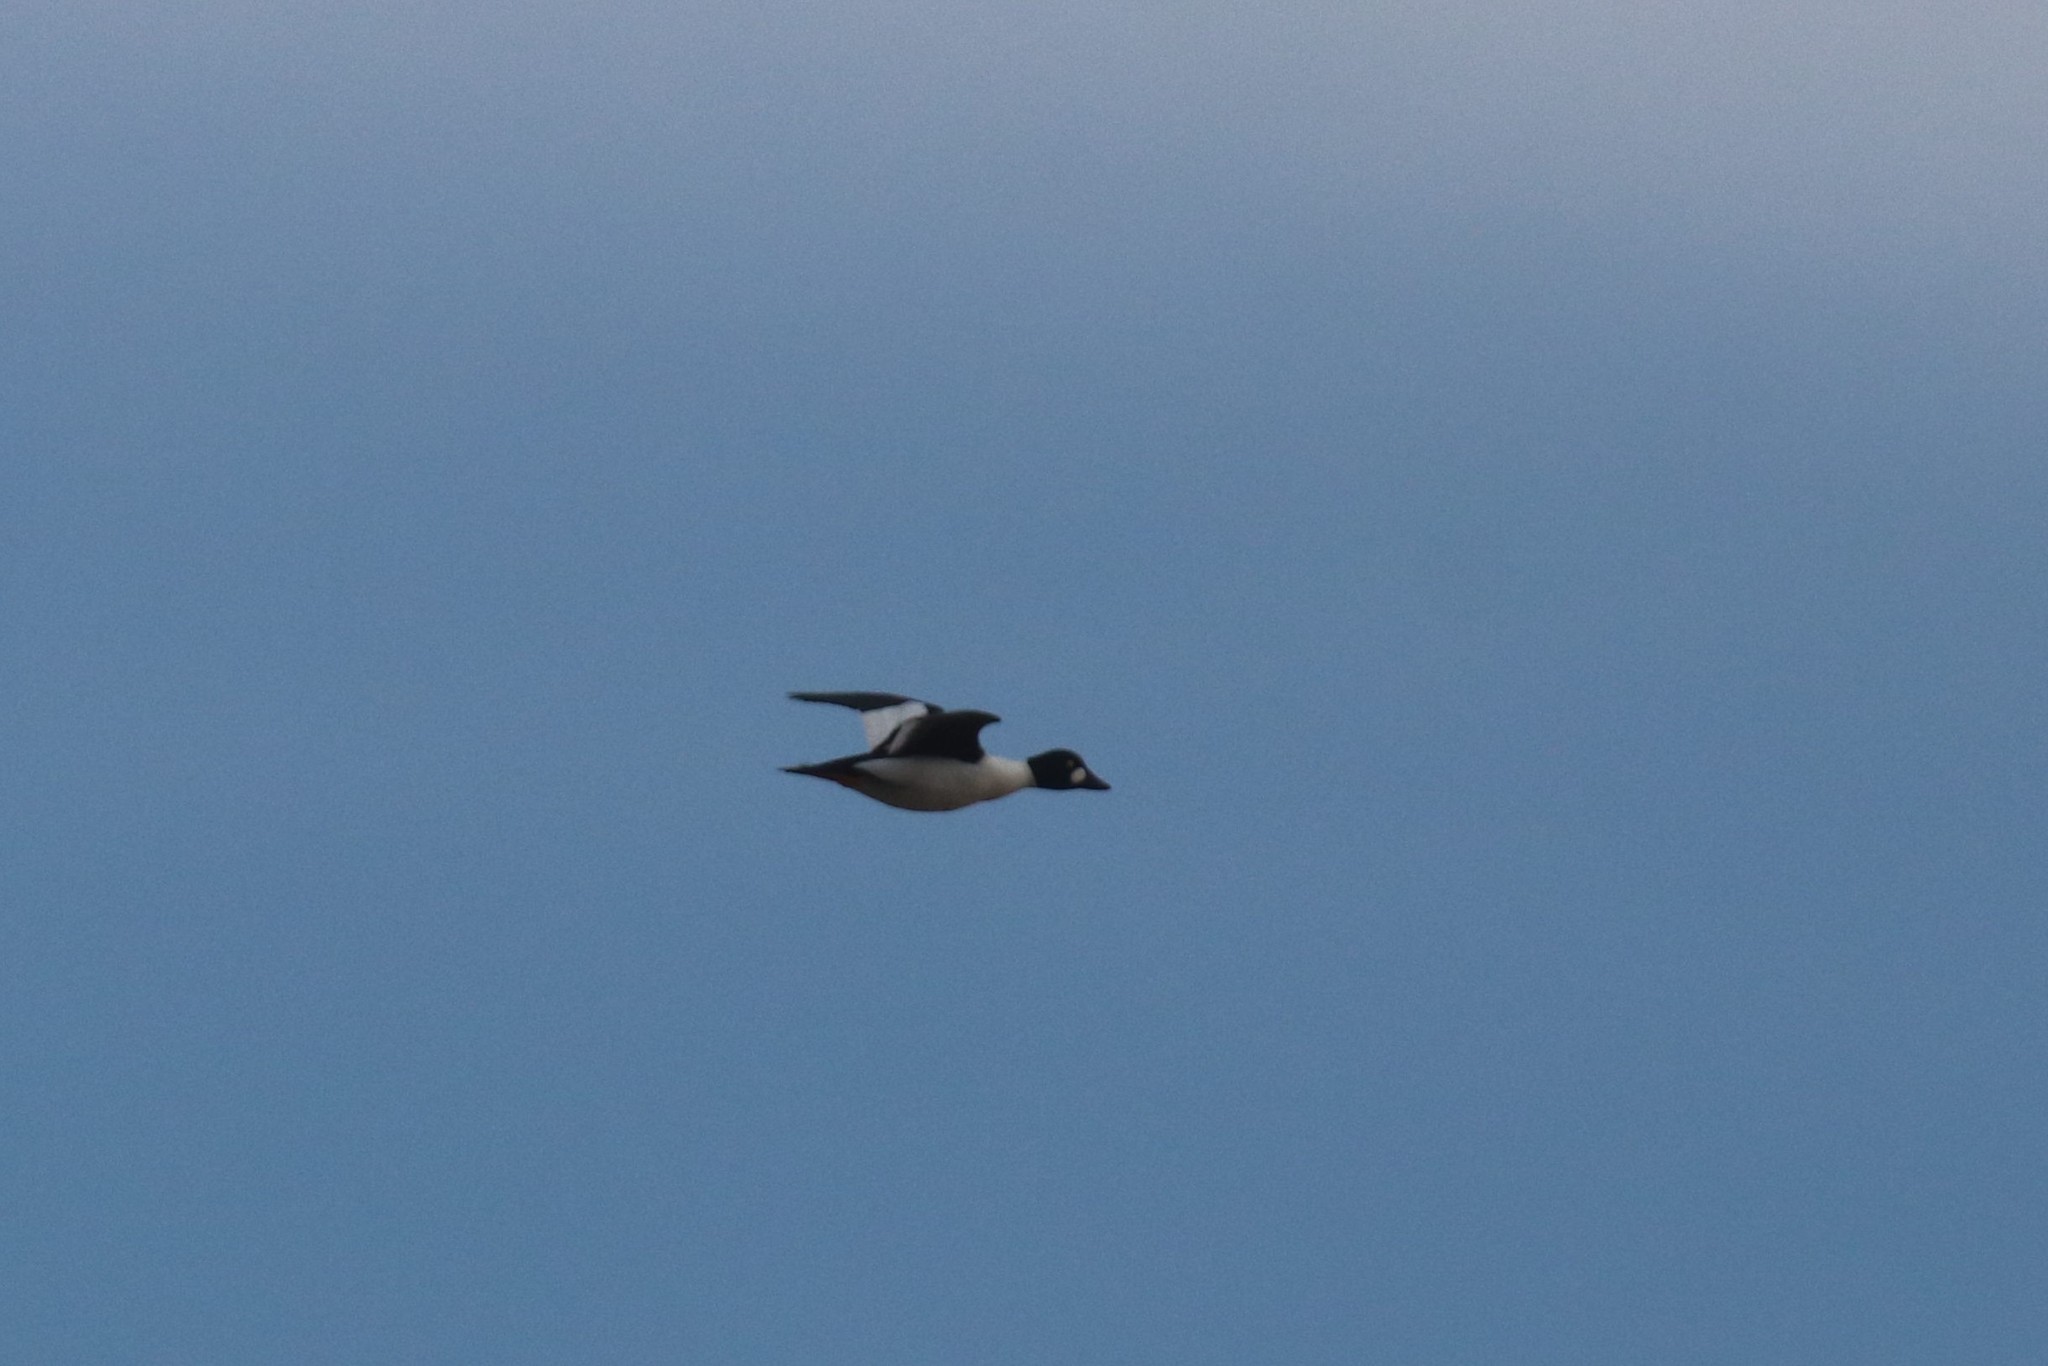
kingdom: Animalia
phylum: Chordata
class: Aves
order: Anseriformes
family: Anatidae
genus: Bucephala
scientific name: Bucephala clangula
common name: Common goldeneye
